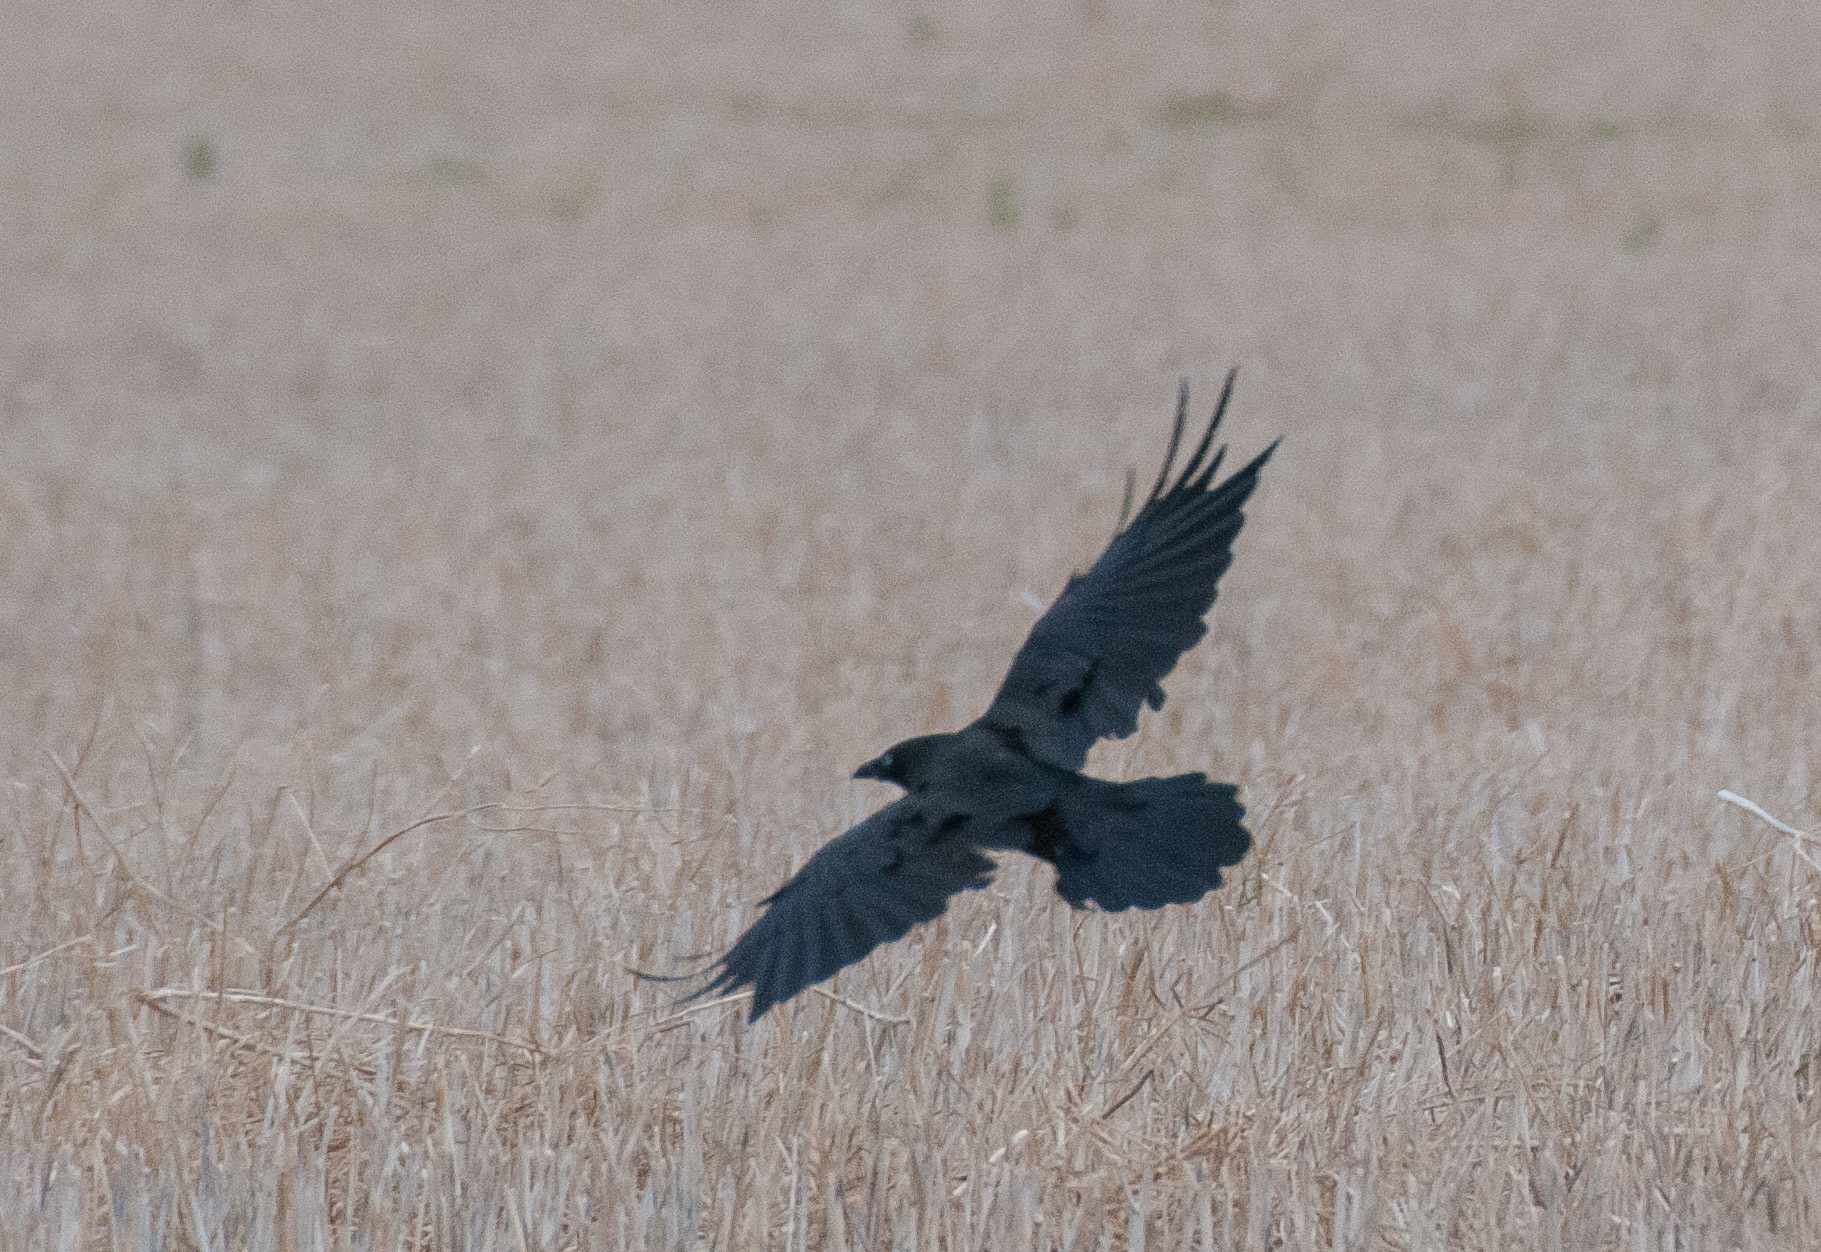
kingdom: Animalia
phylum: Chordata
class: Aves
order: Passeriformes
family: Corvidae
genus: Corvus
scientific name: Corvus
